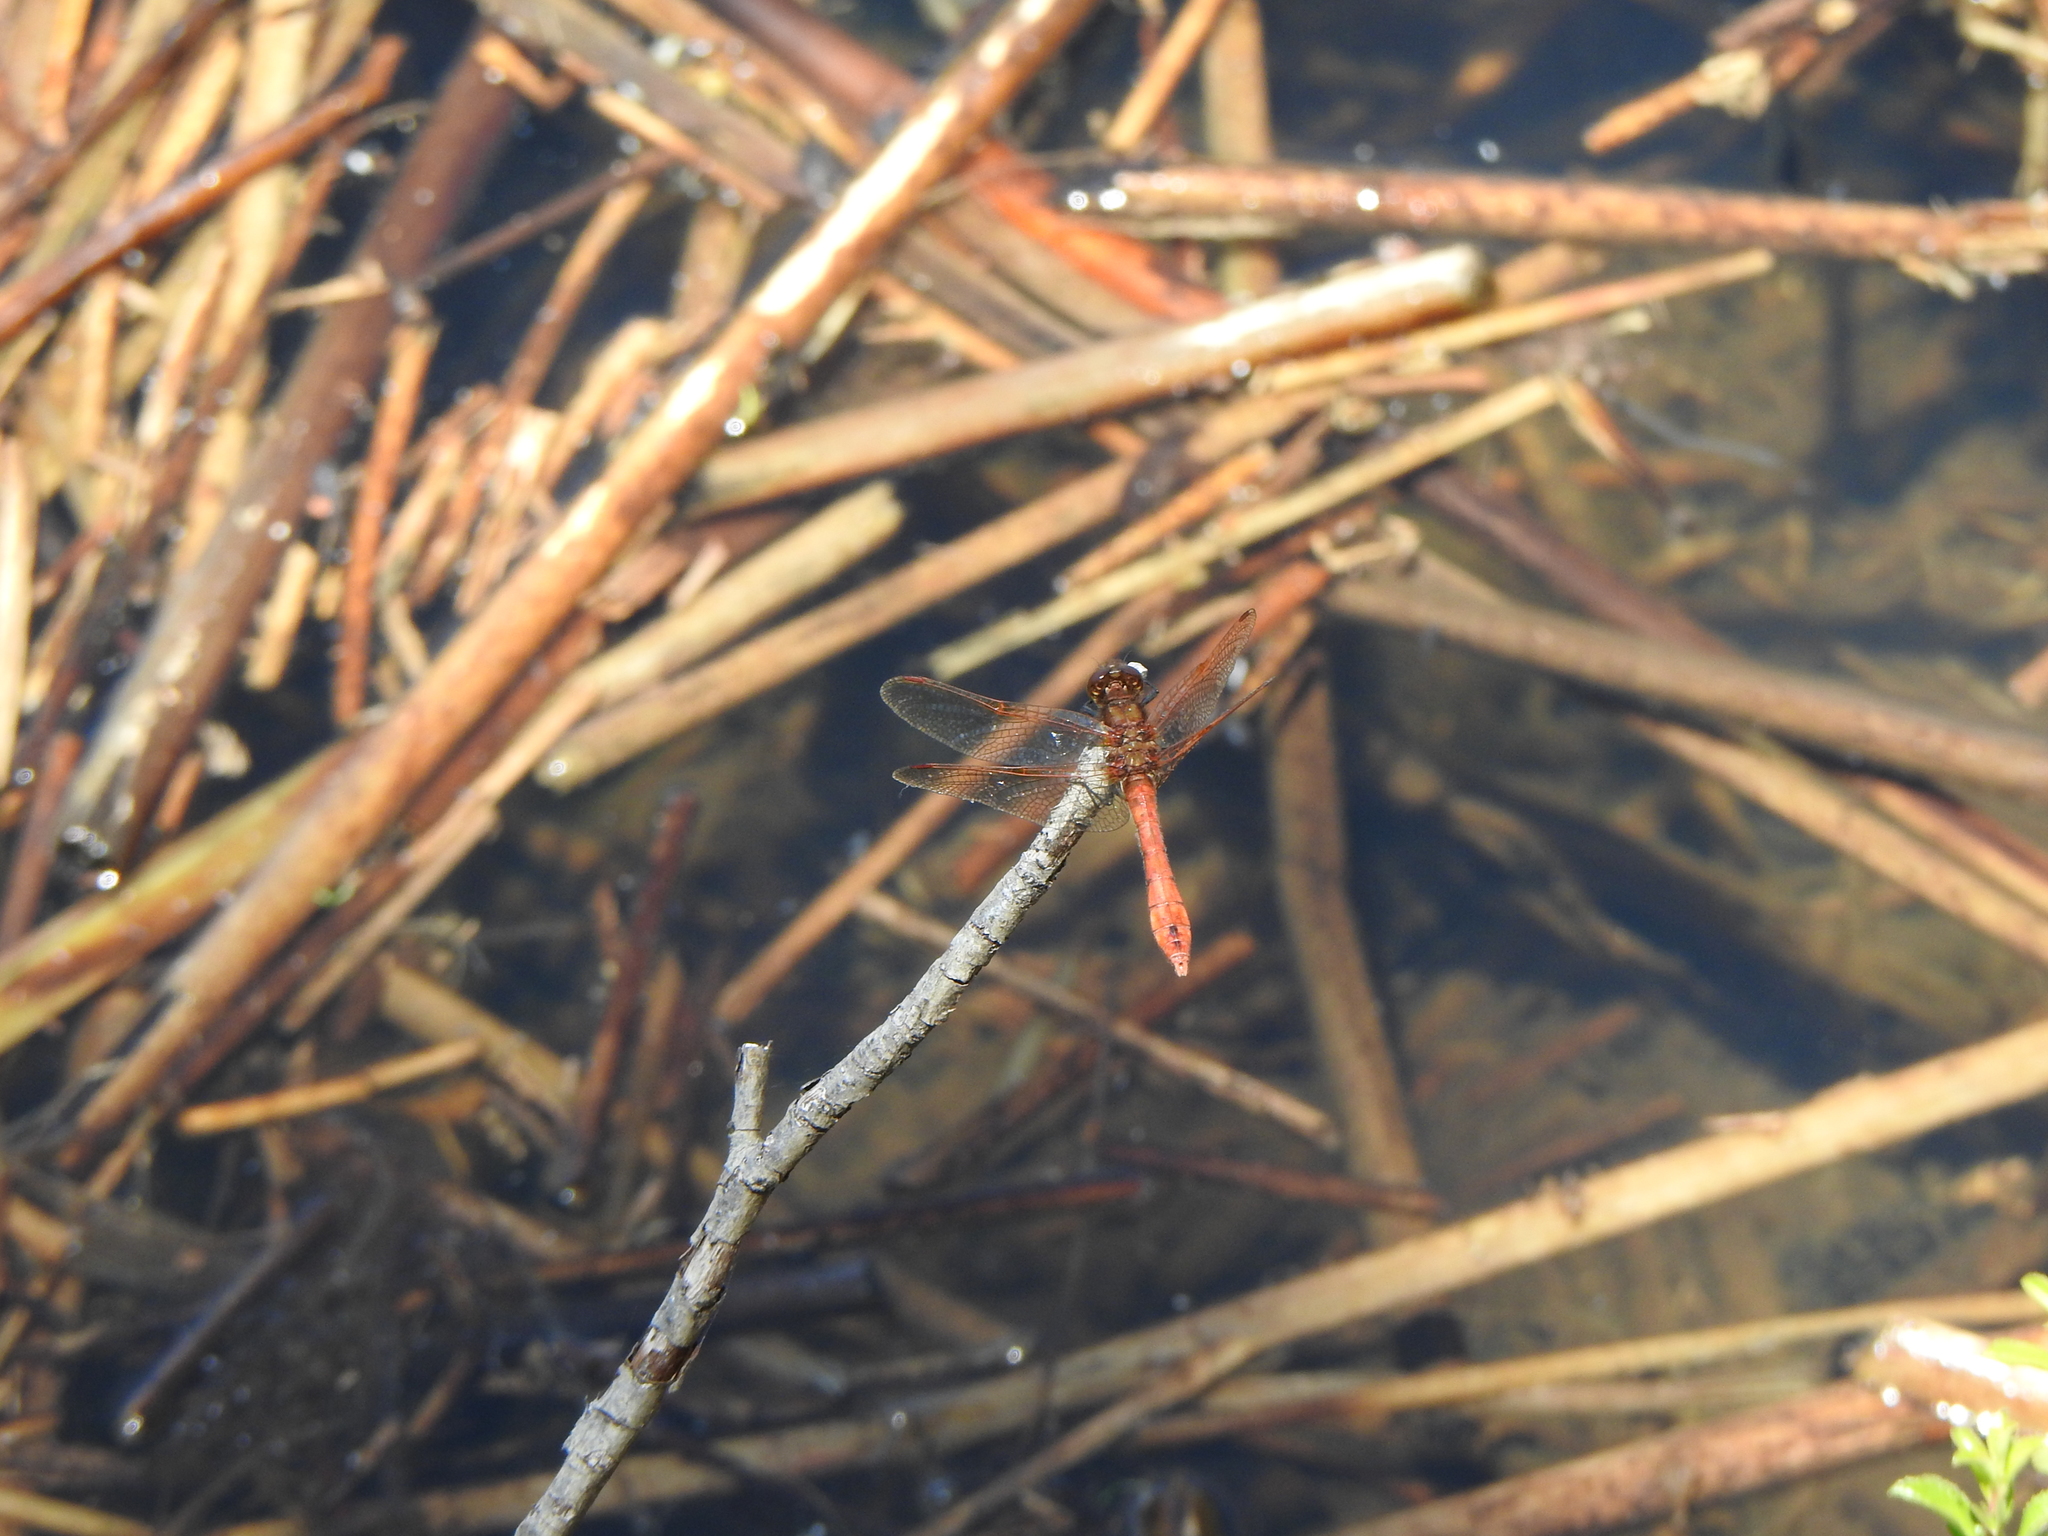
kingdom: Animalia
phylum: Arthropoda
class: Insecta
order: Odonata
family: Libellulidae
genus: Sympetrum
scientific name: Sympetrum villosum
